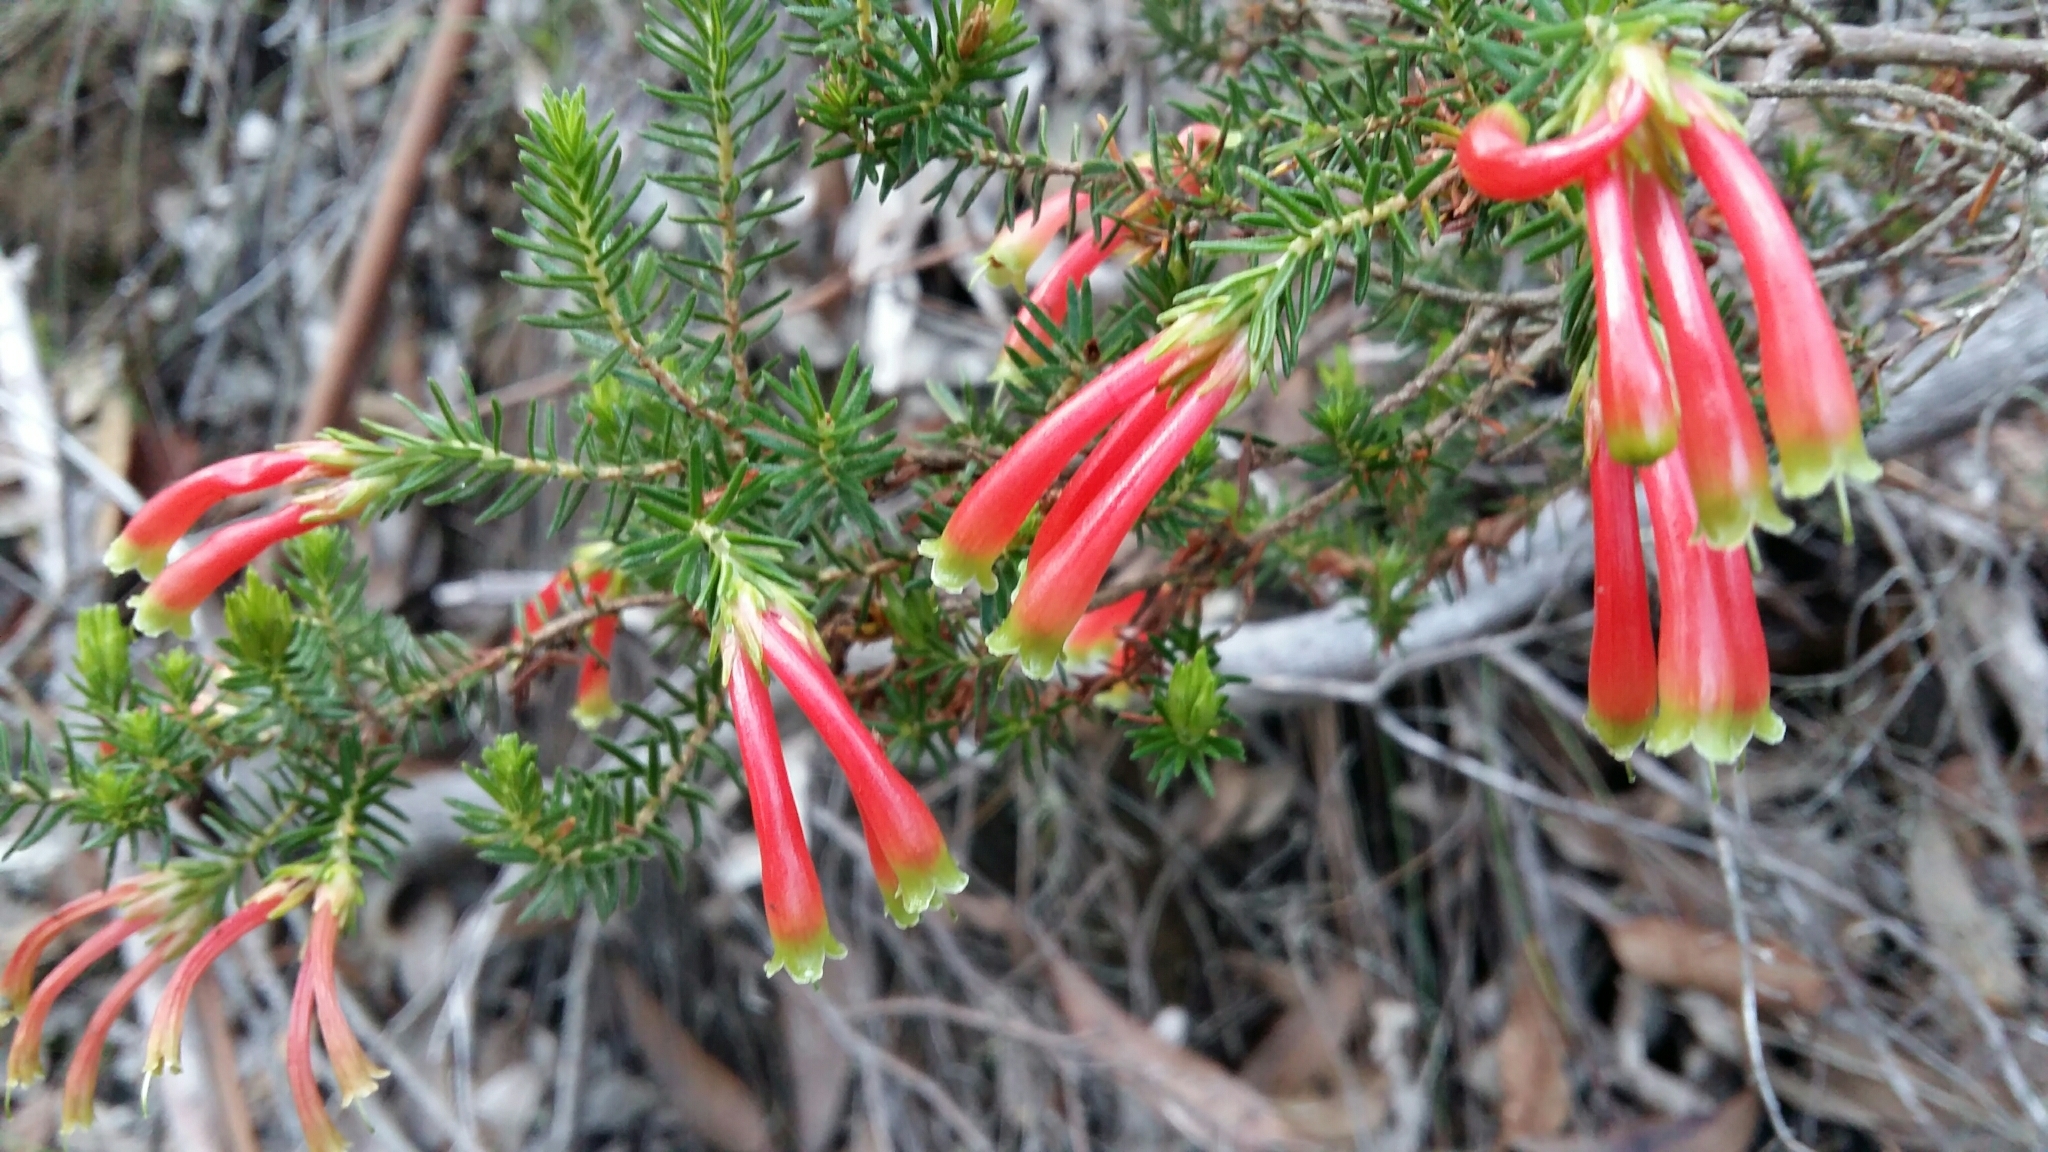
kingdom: Plantae
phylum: Tracheophyta
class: Magnoliopsida
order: Ericales
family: Ericaceae
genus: Erica
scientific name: Erica discolor
